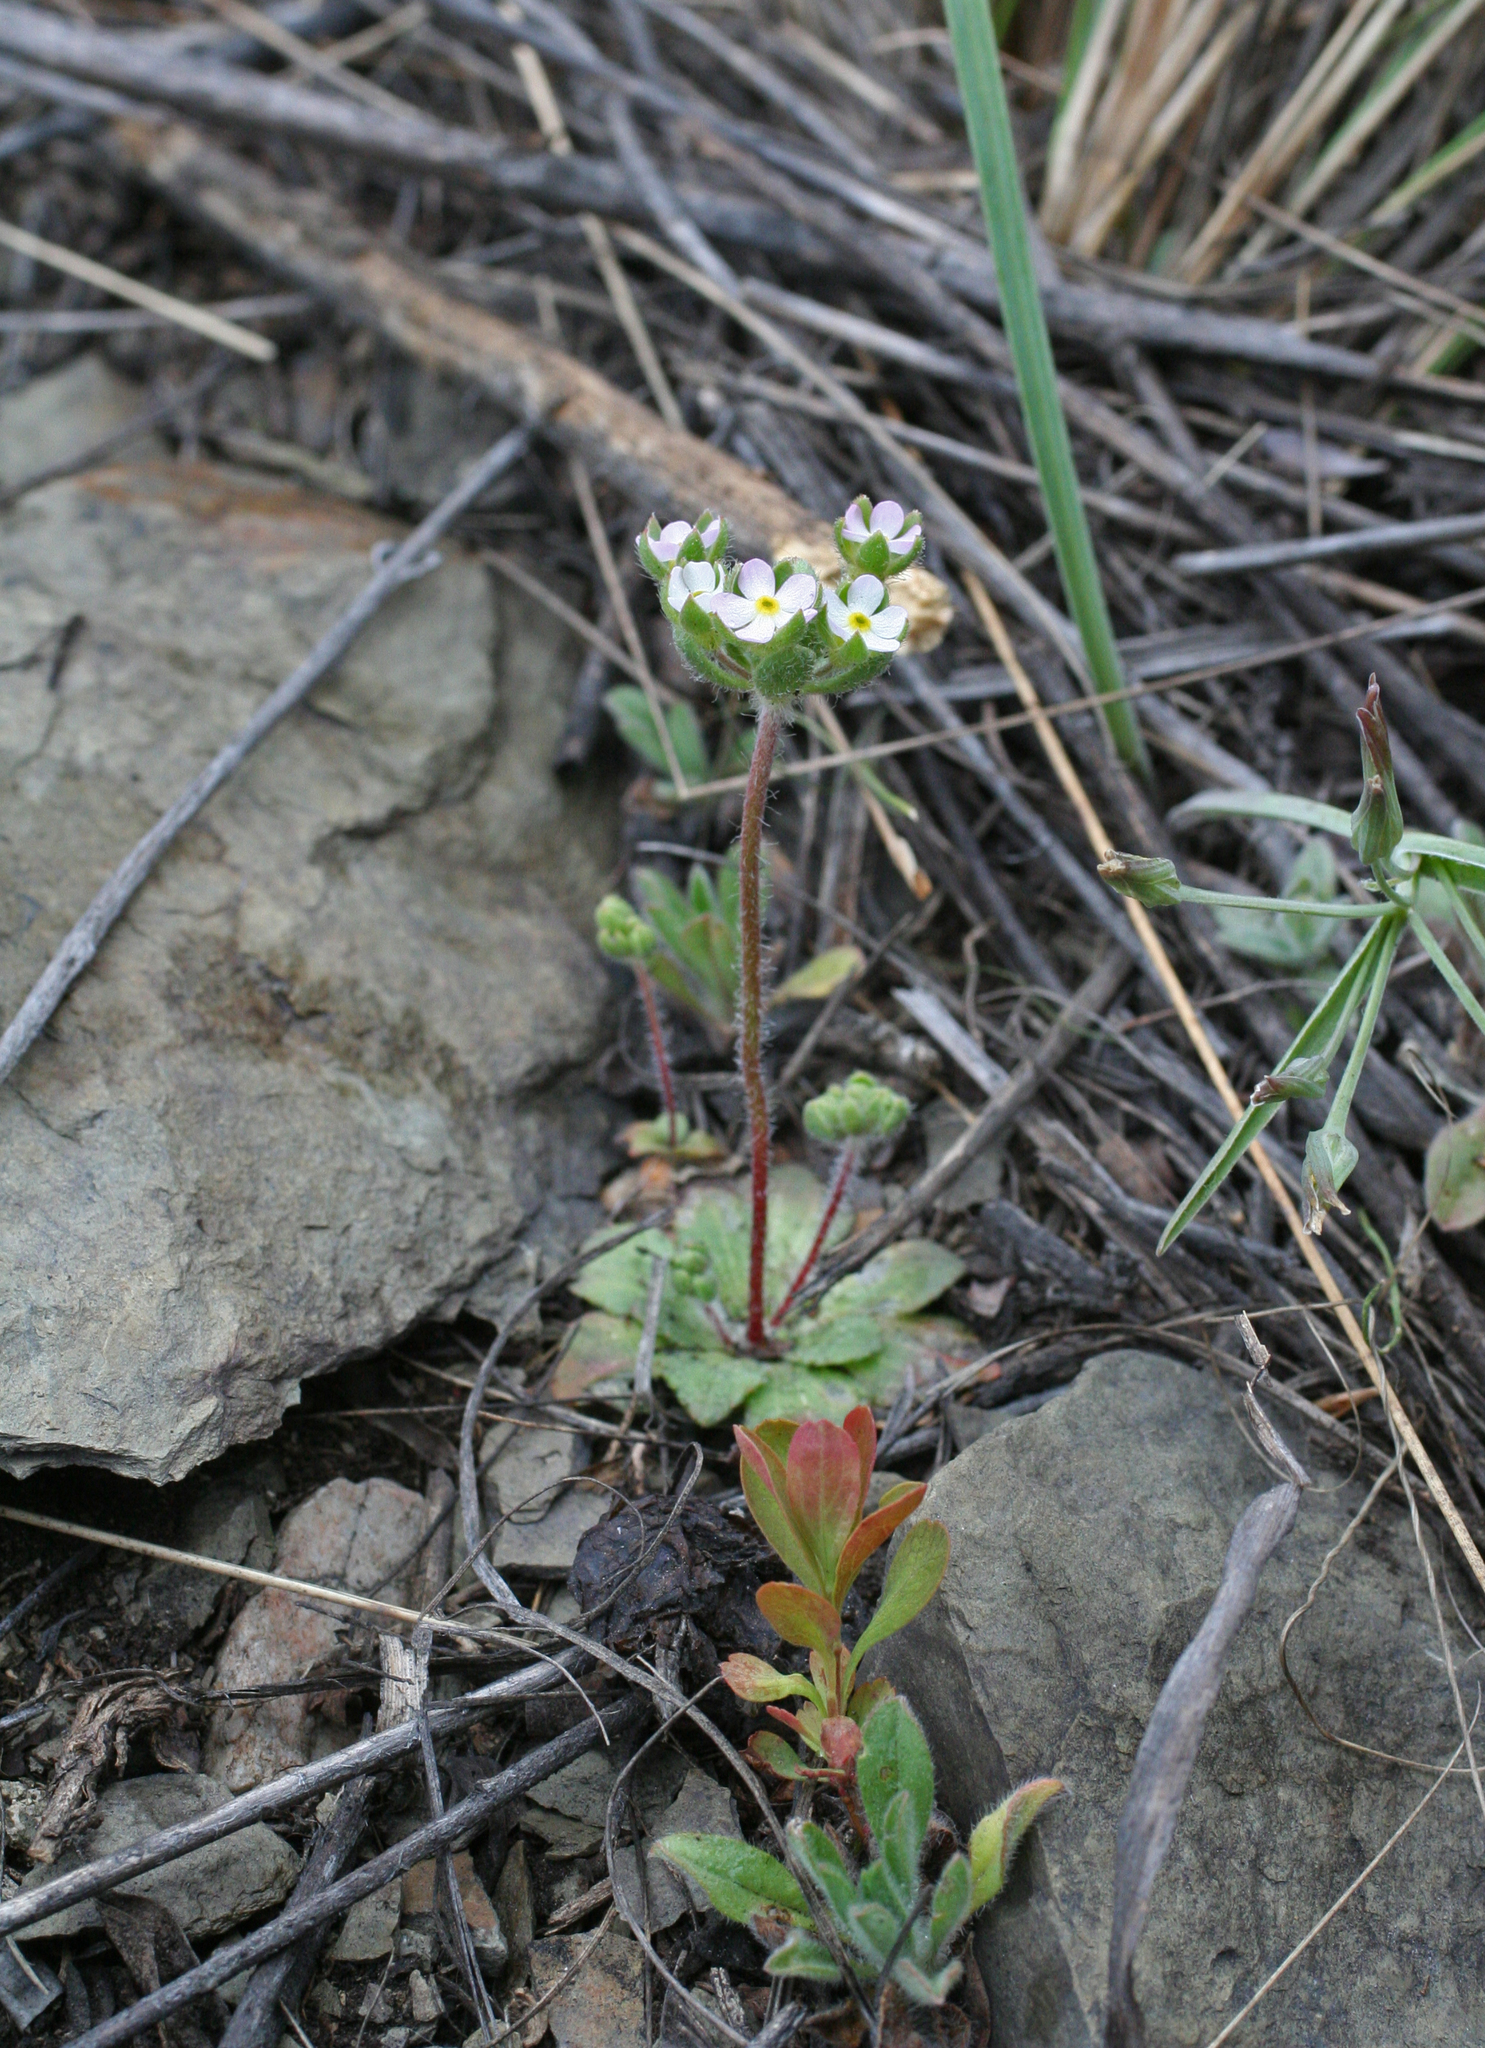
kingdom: Plantae
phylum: Tracheophyta
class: Magnoliopsida
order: Ericales
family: Primulaceae
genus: Androsace
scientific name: Androsace maxima
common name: Annual androsace
